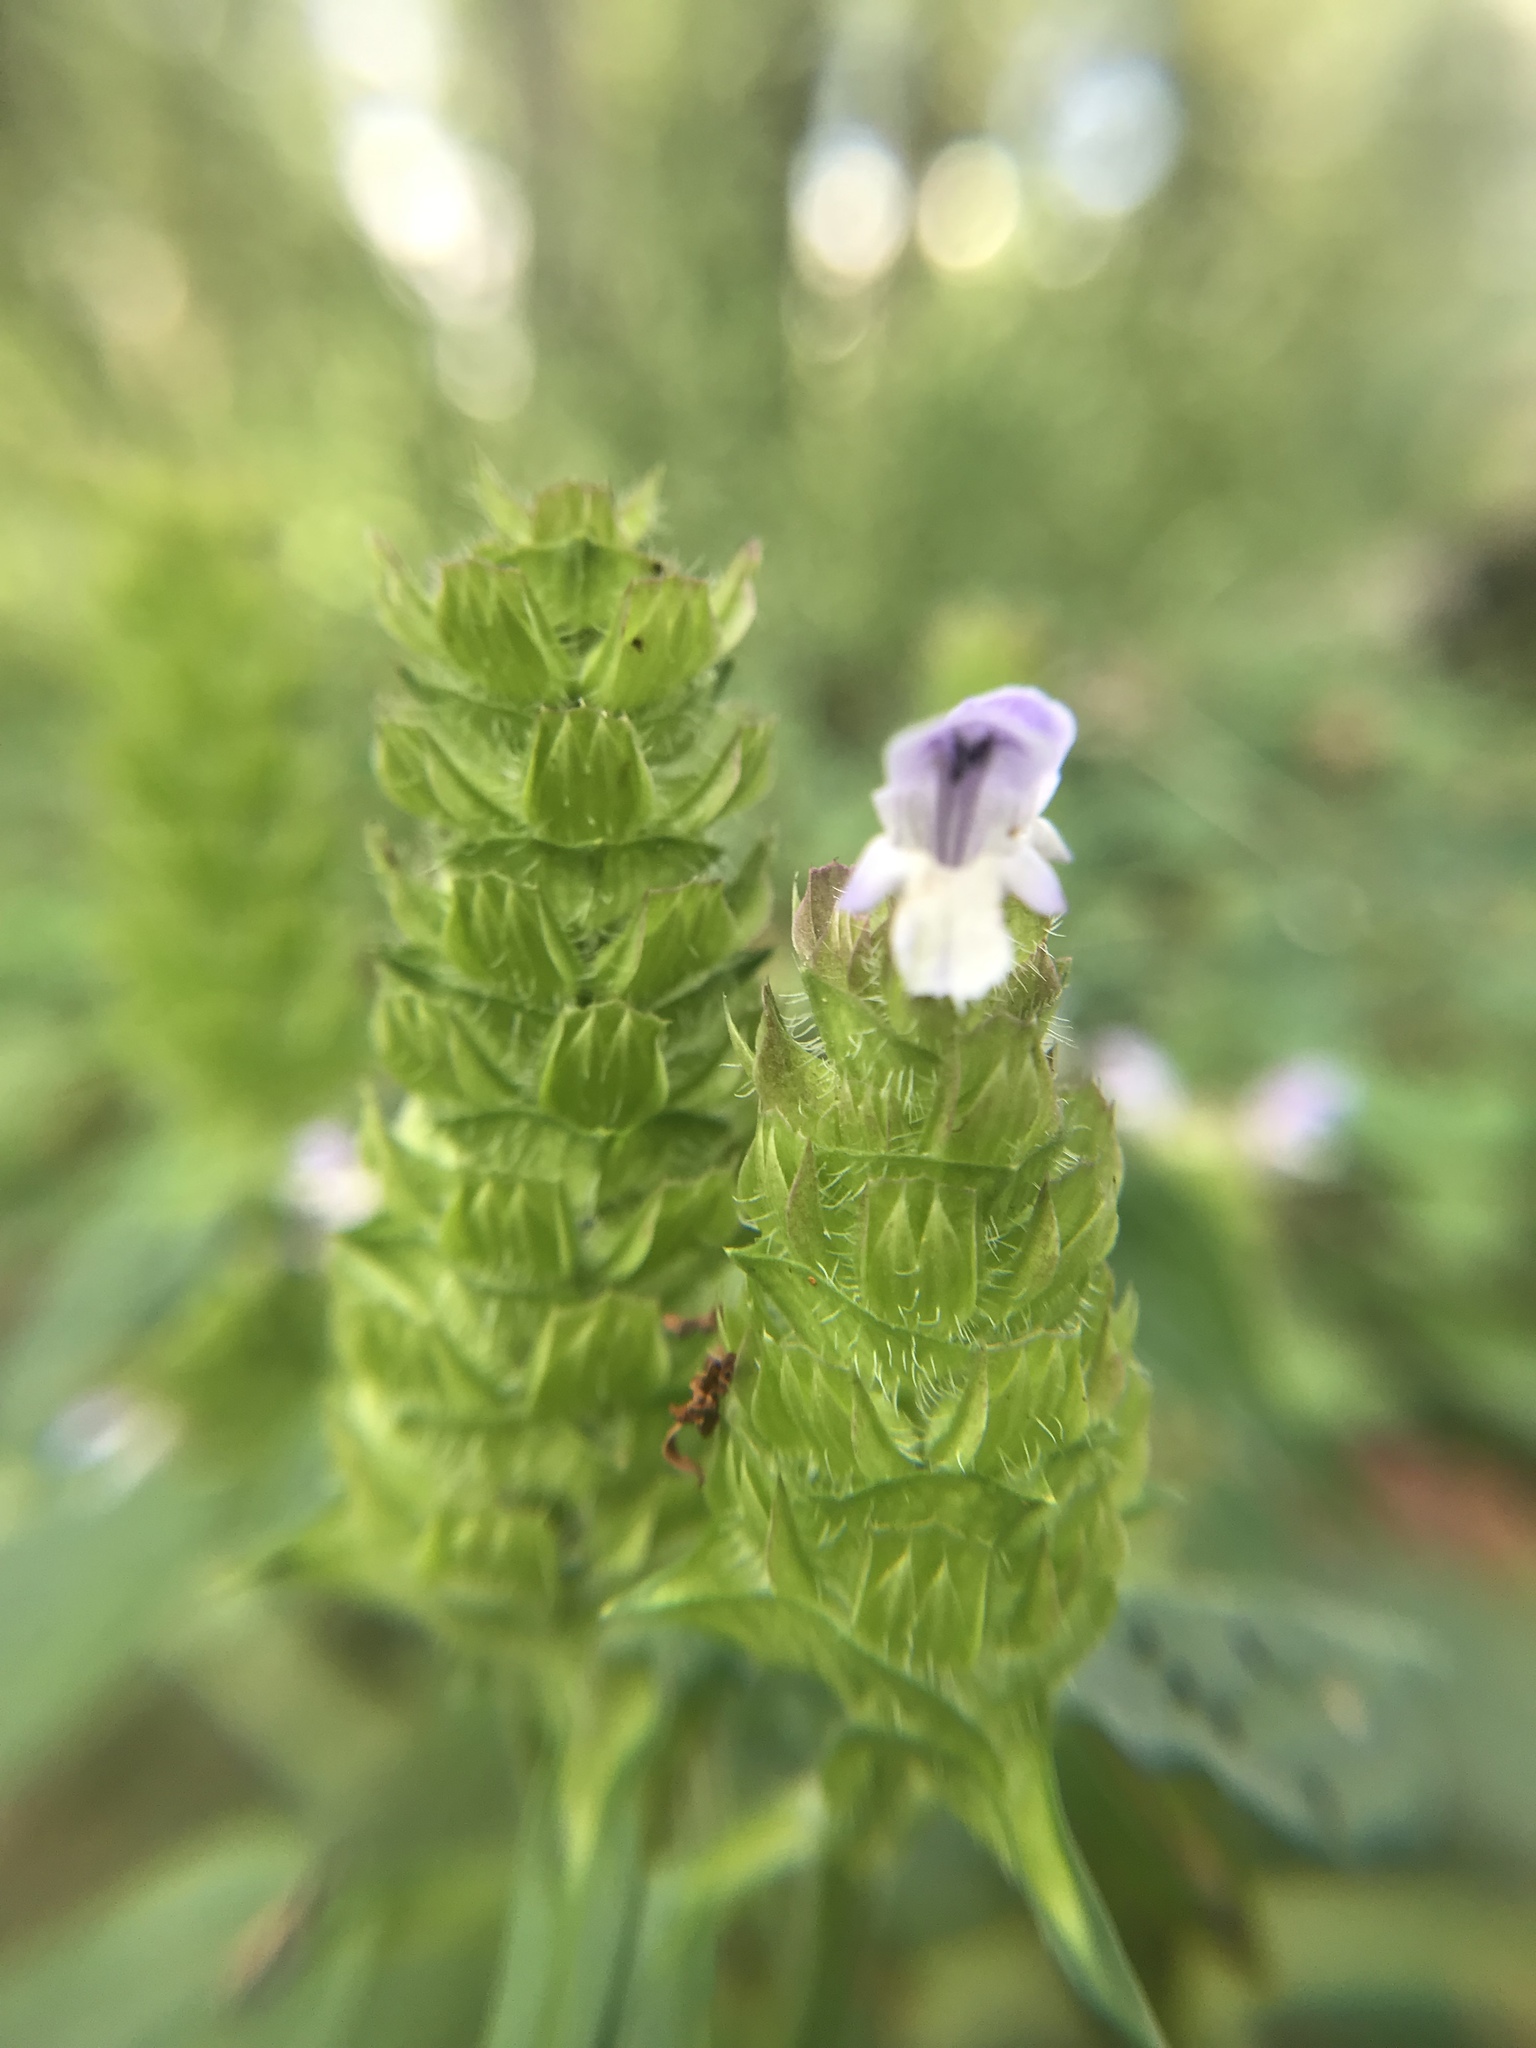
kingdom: Plantae
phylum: Tracheophyta
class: Magnoliopsida
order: Lamiales
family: Lamiaceae
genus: Prunella
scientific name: Prunella vulgaris
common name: Heal-all
